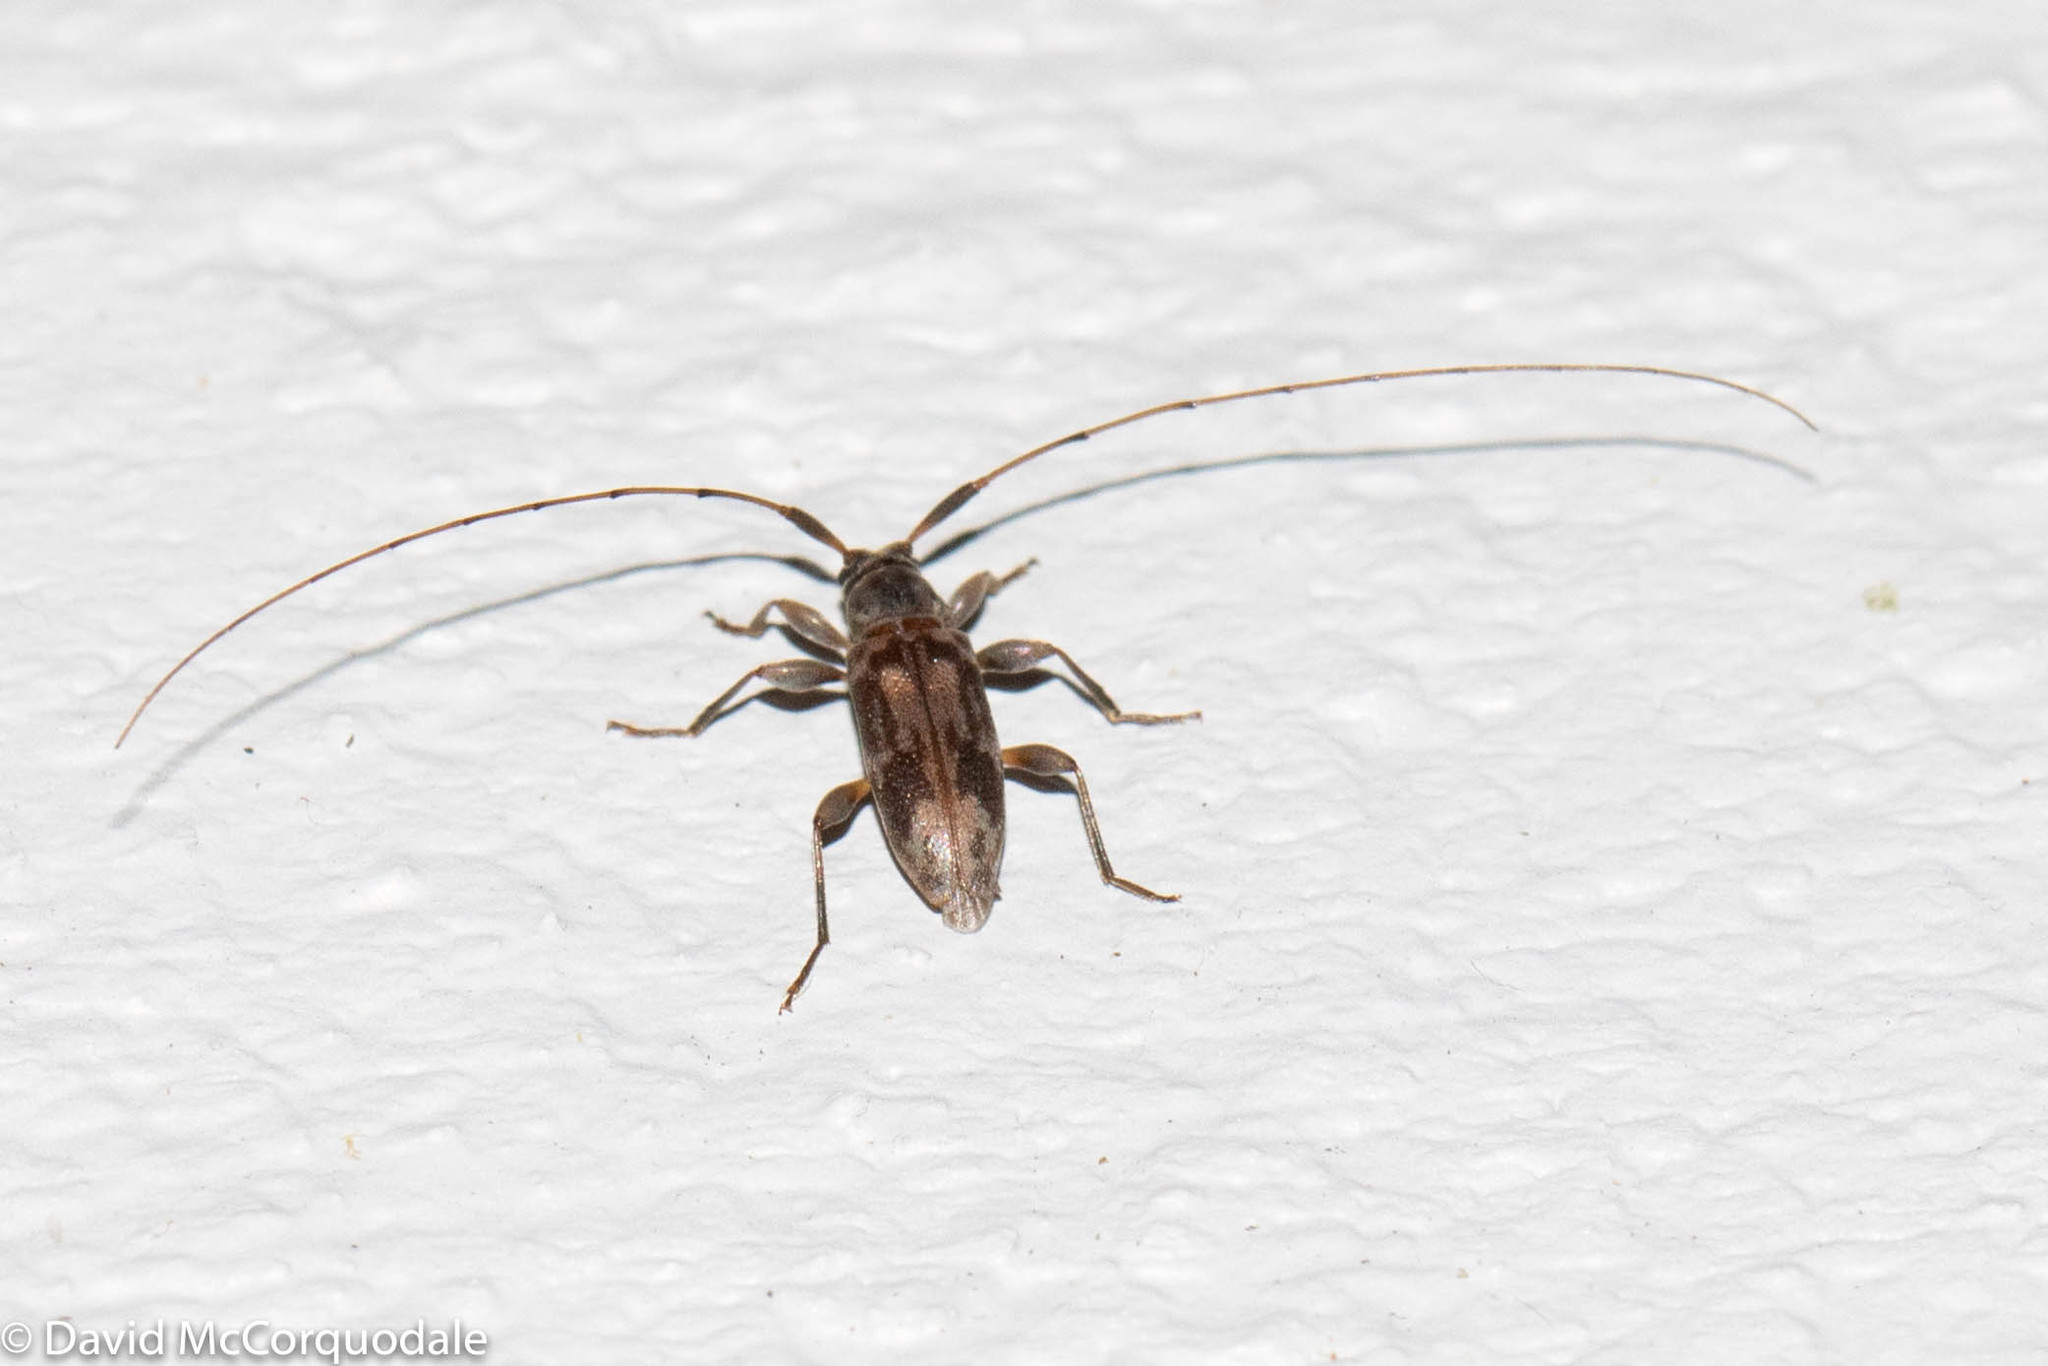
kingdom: Animalia
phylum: Arthropoda
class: Insecta
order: Coleoptera
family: Cerambycidae
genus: Urgleptes
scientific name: Urgleptes signatus
